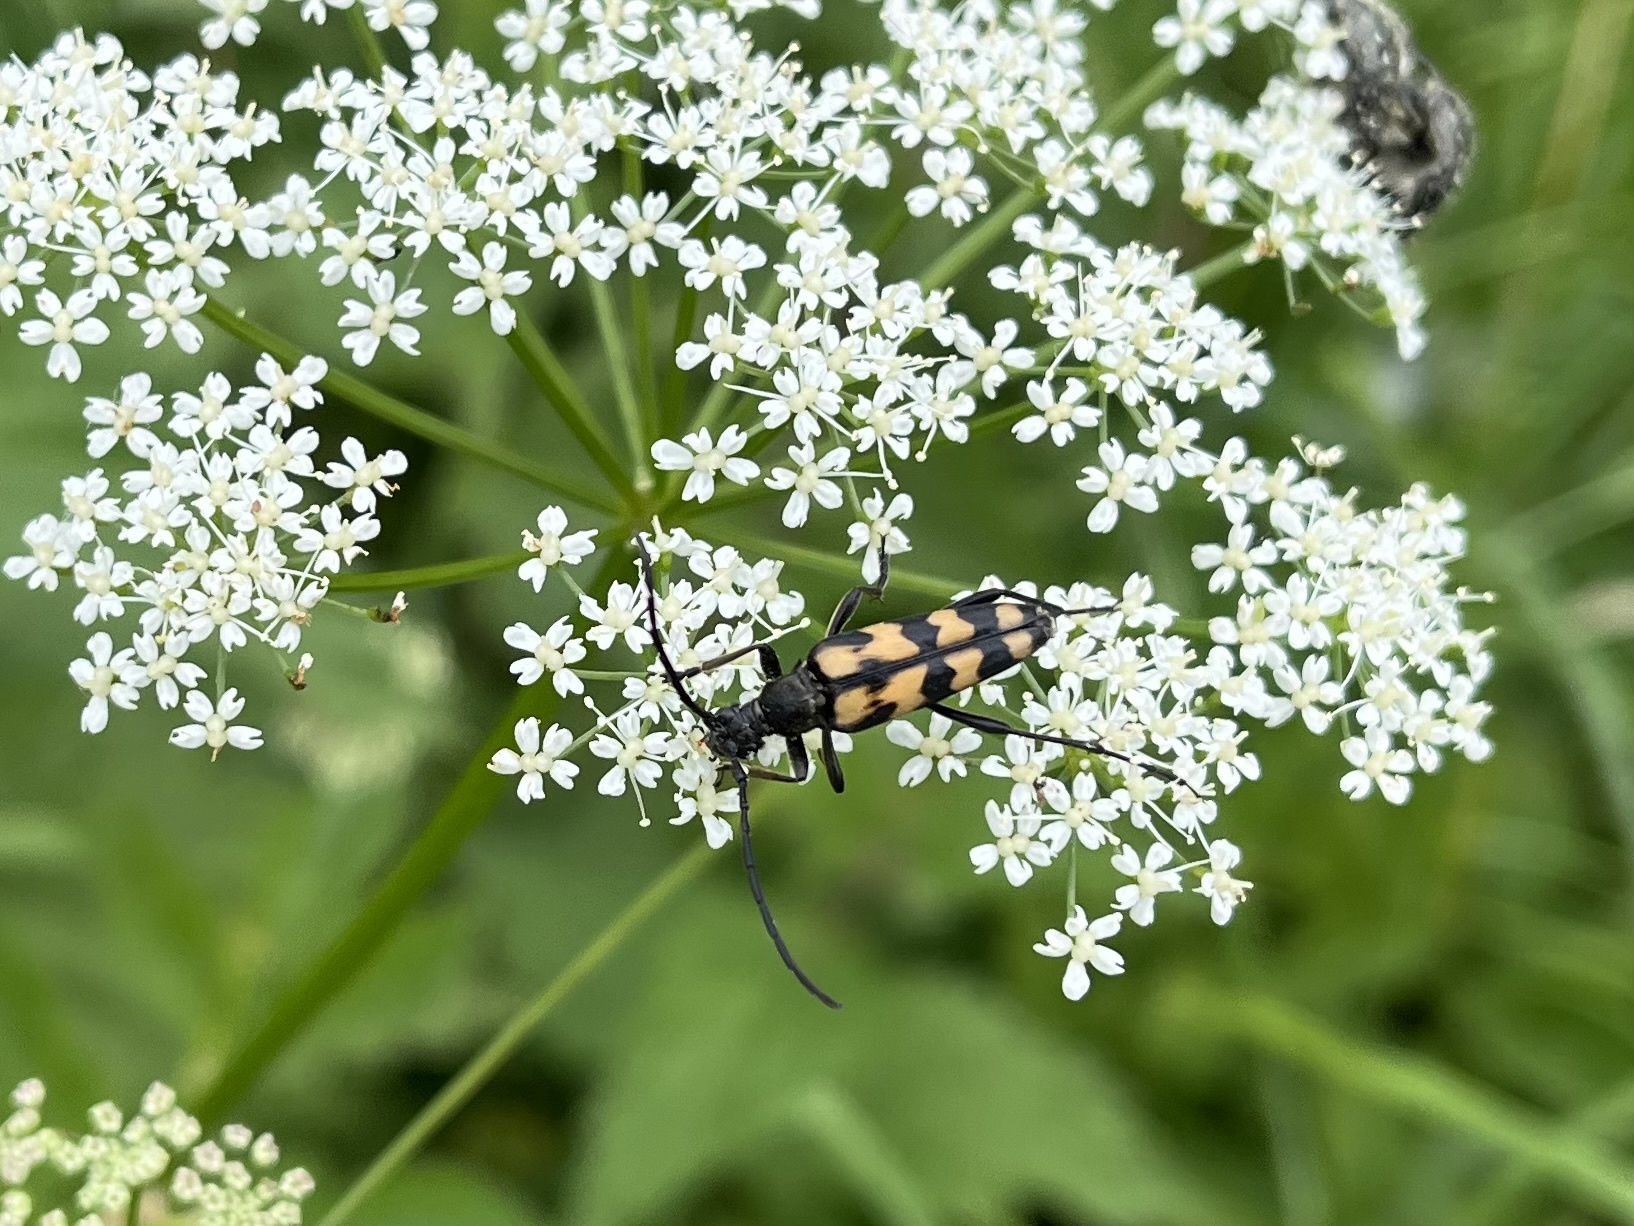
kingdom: Animalia
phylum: Arthropoda
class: Insecta
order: Coleoptera
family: Cerambycidae
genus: Leptura
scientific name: Leptura quadrifasciata
